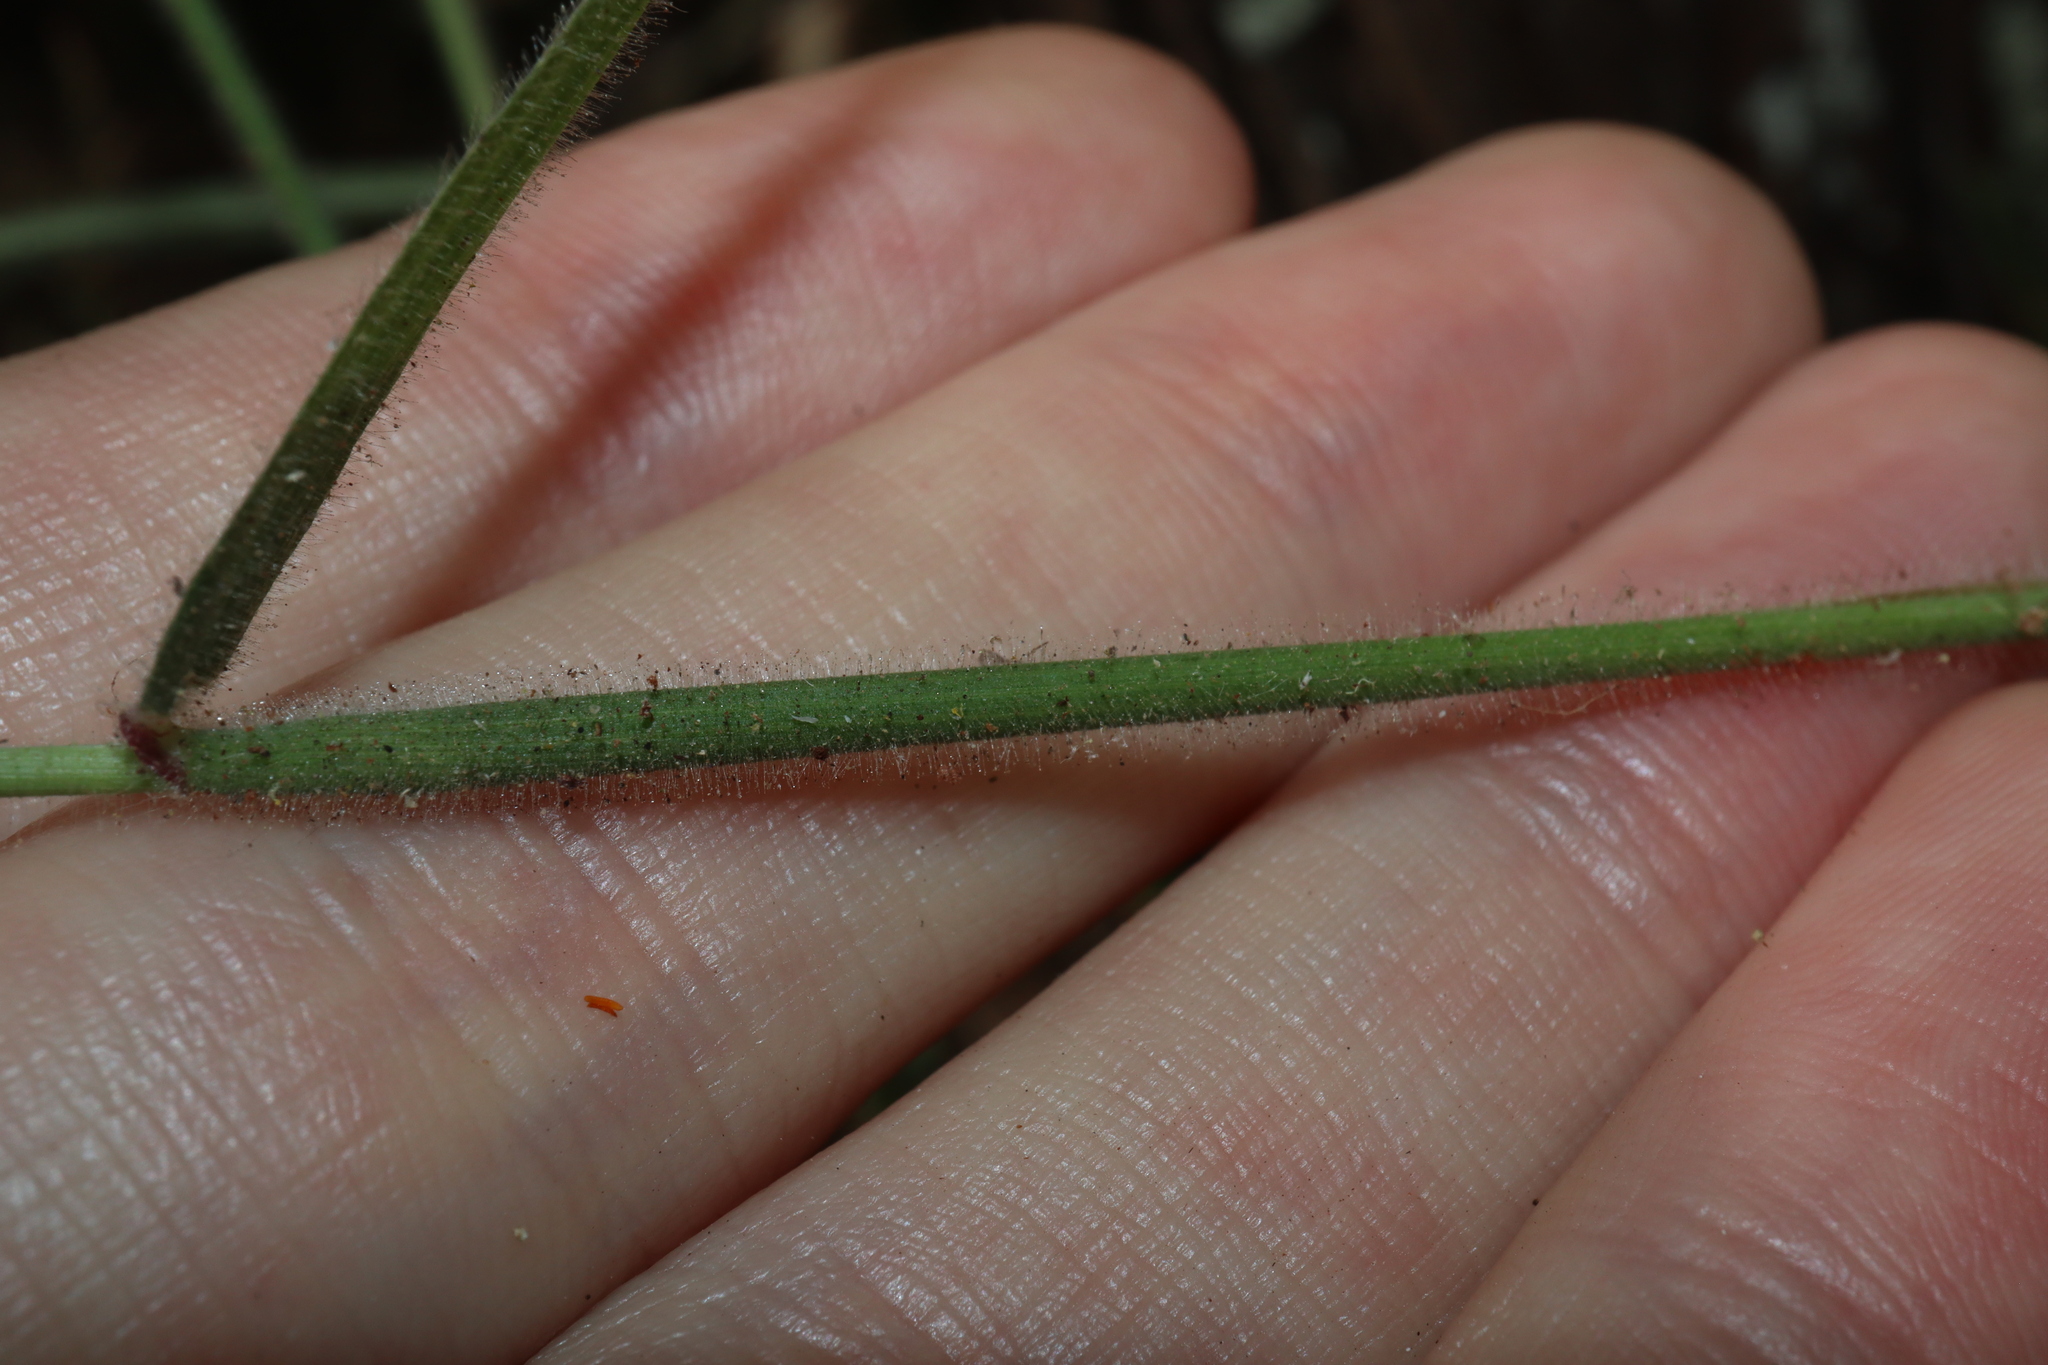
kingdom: Plantae
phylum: Tracheophyta
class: Liliopsida
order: Poales
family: Poaceae
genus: Melinis
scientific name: Melinis minutiflora
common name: Molassesgrass
